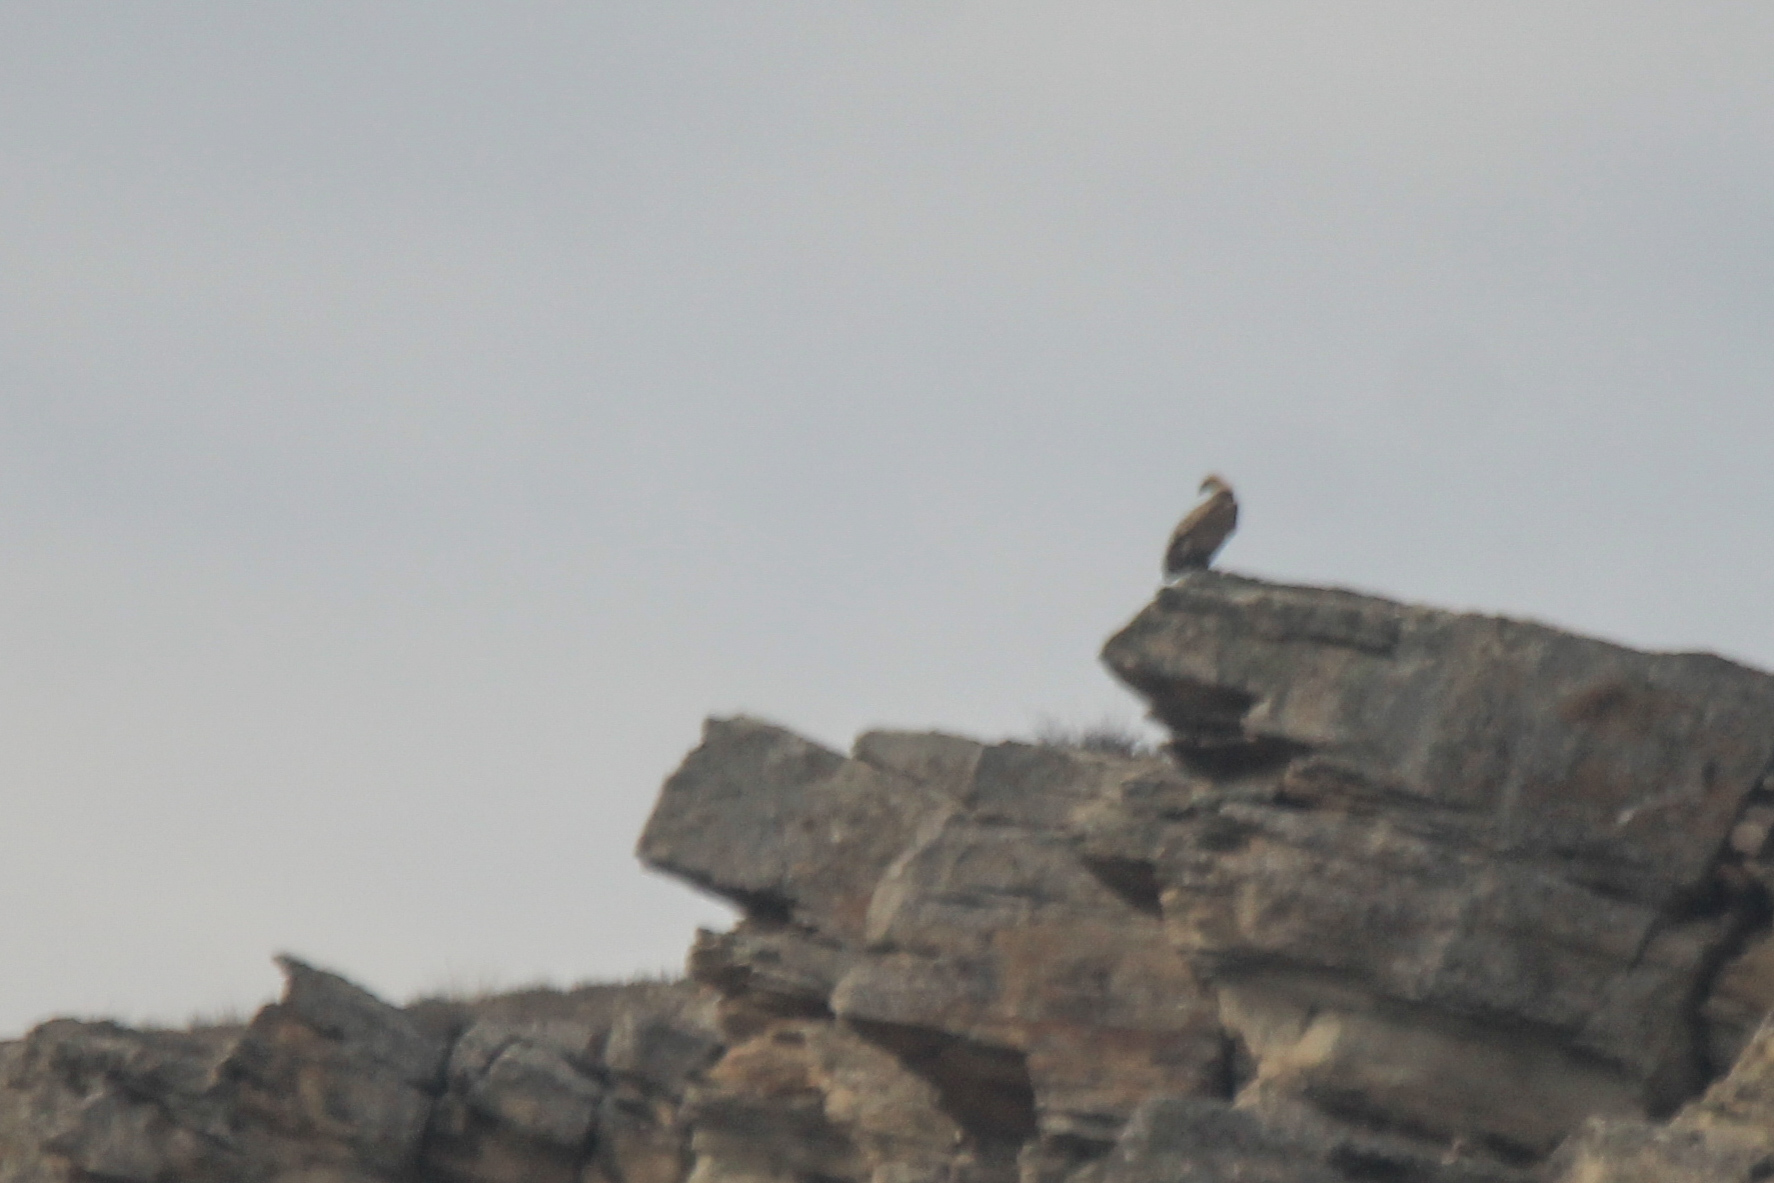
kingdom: Animalia
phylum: Chordata
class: Aves
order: Accipitriformes
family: Accipitridae
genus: Gyps
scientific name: Gyps fulvus
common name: Griffon vulture
